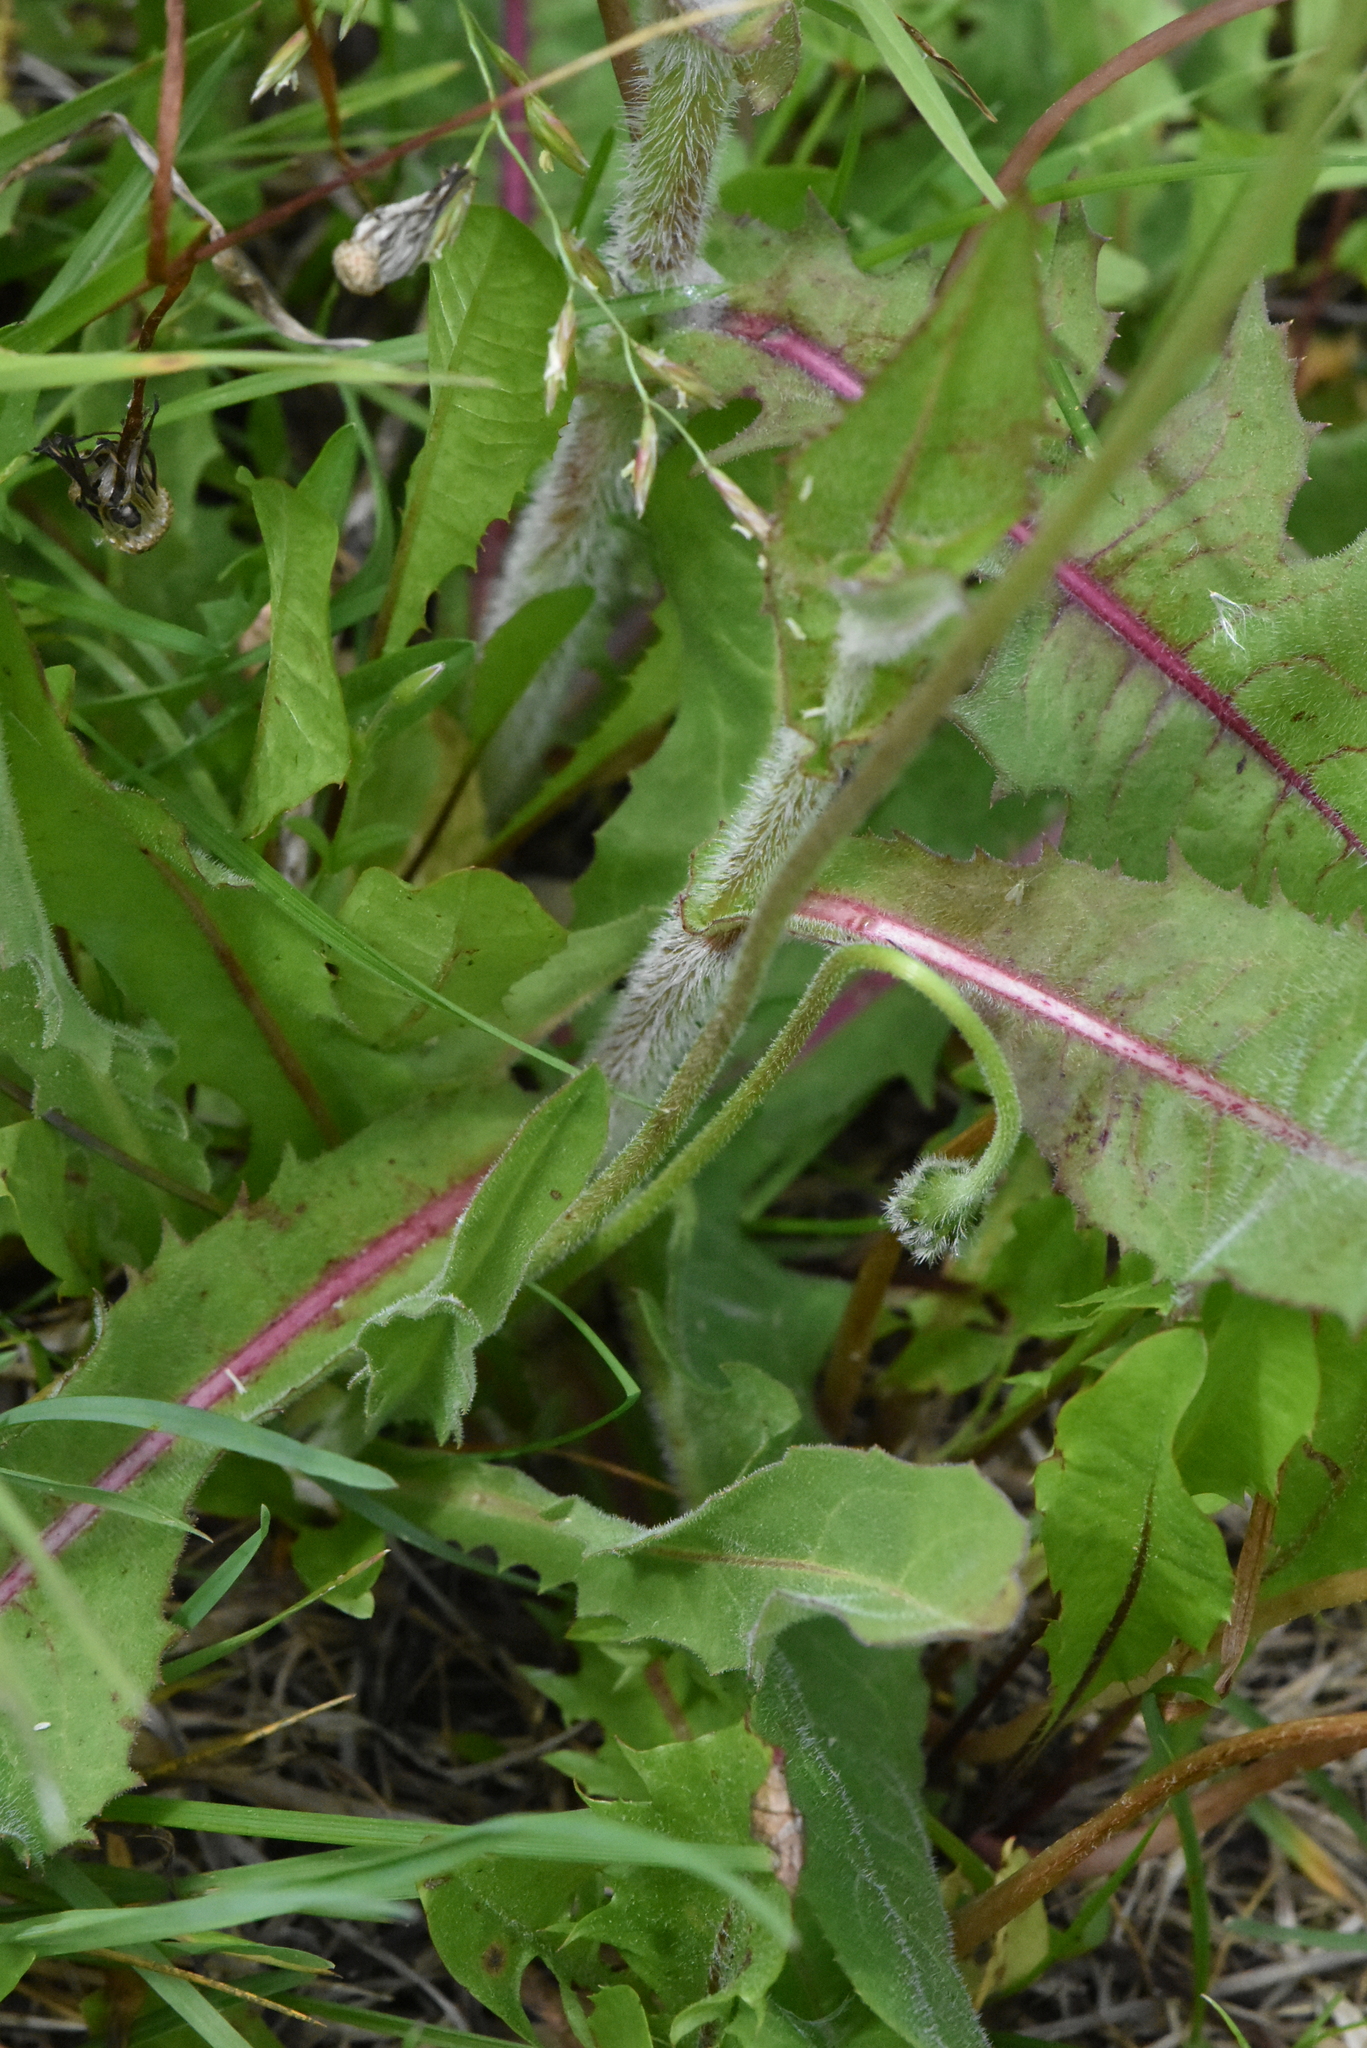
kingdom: Plantae
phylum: Tracheophyta
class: Magnoliopsida
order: Asterales
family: Asteraceae
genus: Leontodon
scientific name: Leontodon hispidus
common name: Rough hawkbit
